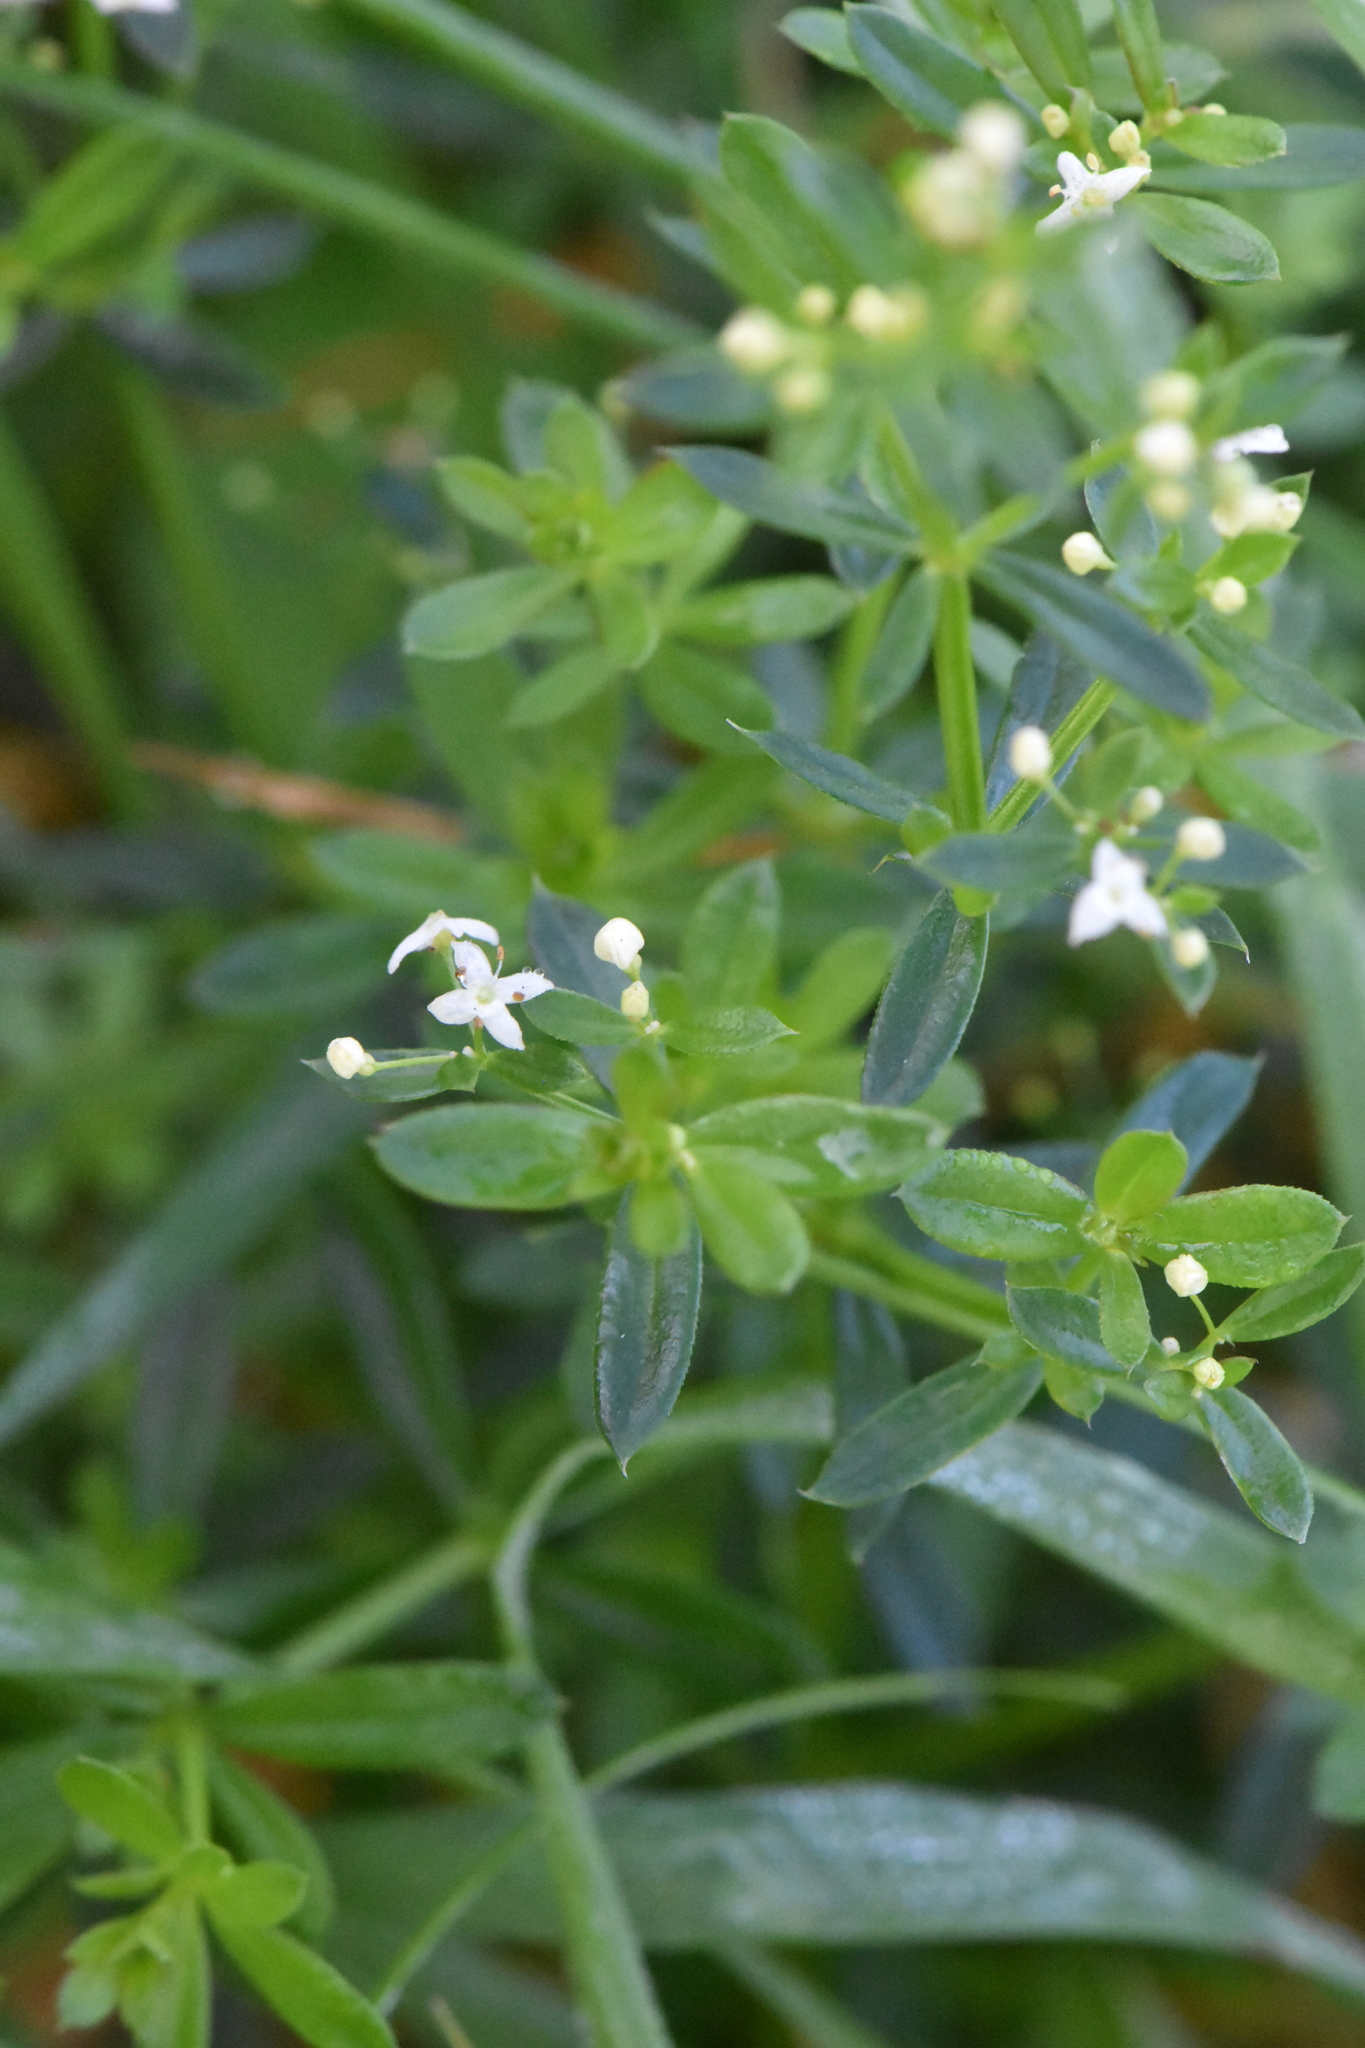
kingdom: Plantae
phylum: Tracheophyta
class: Magnoliopsida
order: Gentianales
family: Rubiaceae
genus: Galium
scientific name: Galium mollugo
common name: Hedge bedstraw
